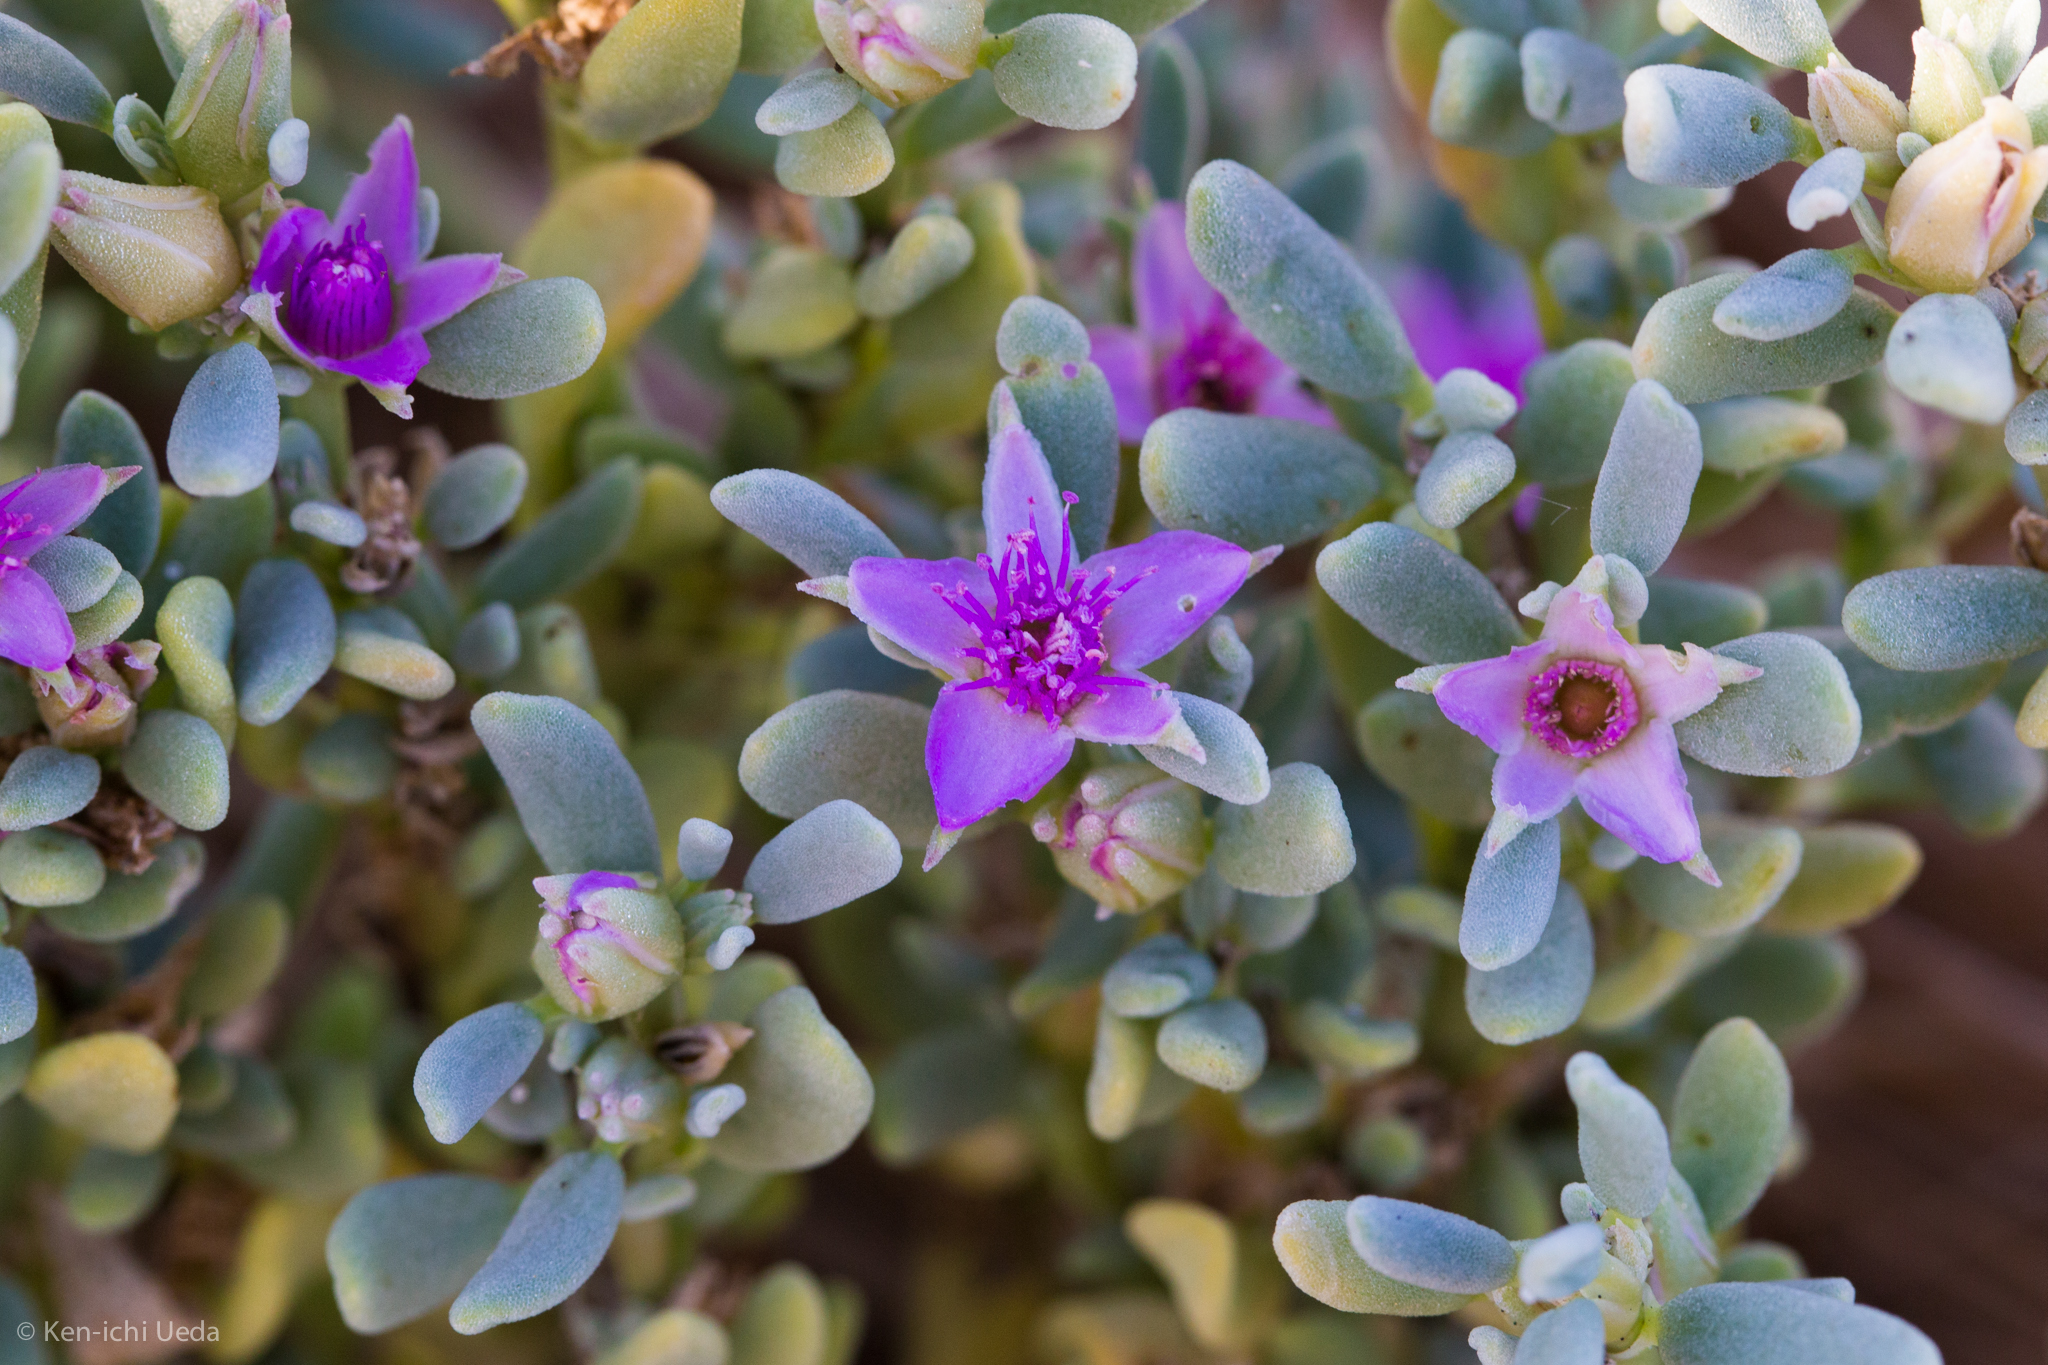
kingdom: Plantae
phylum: Tracheophyta
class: Magnoliopsida
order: Caryophyllales
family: Aizoaceae
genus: Sesuvium
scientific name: Sesuvium revolutifolium
